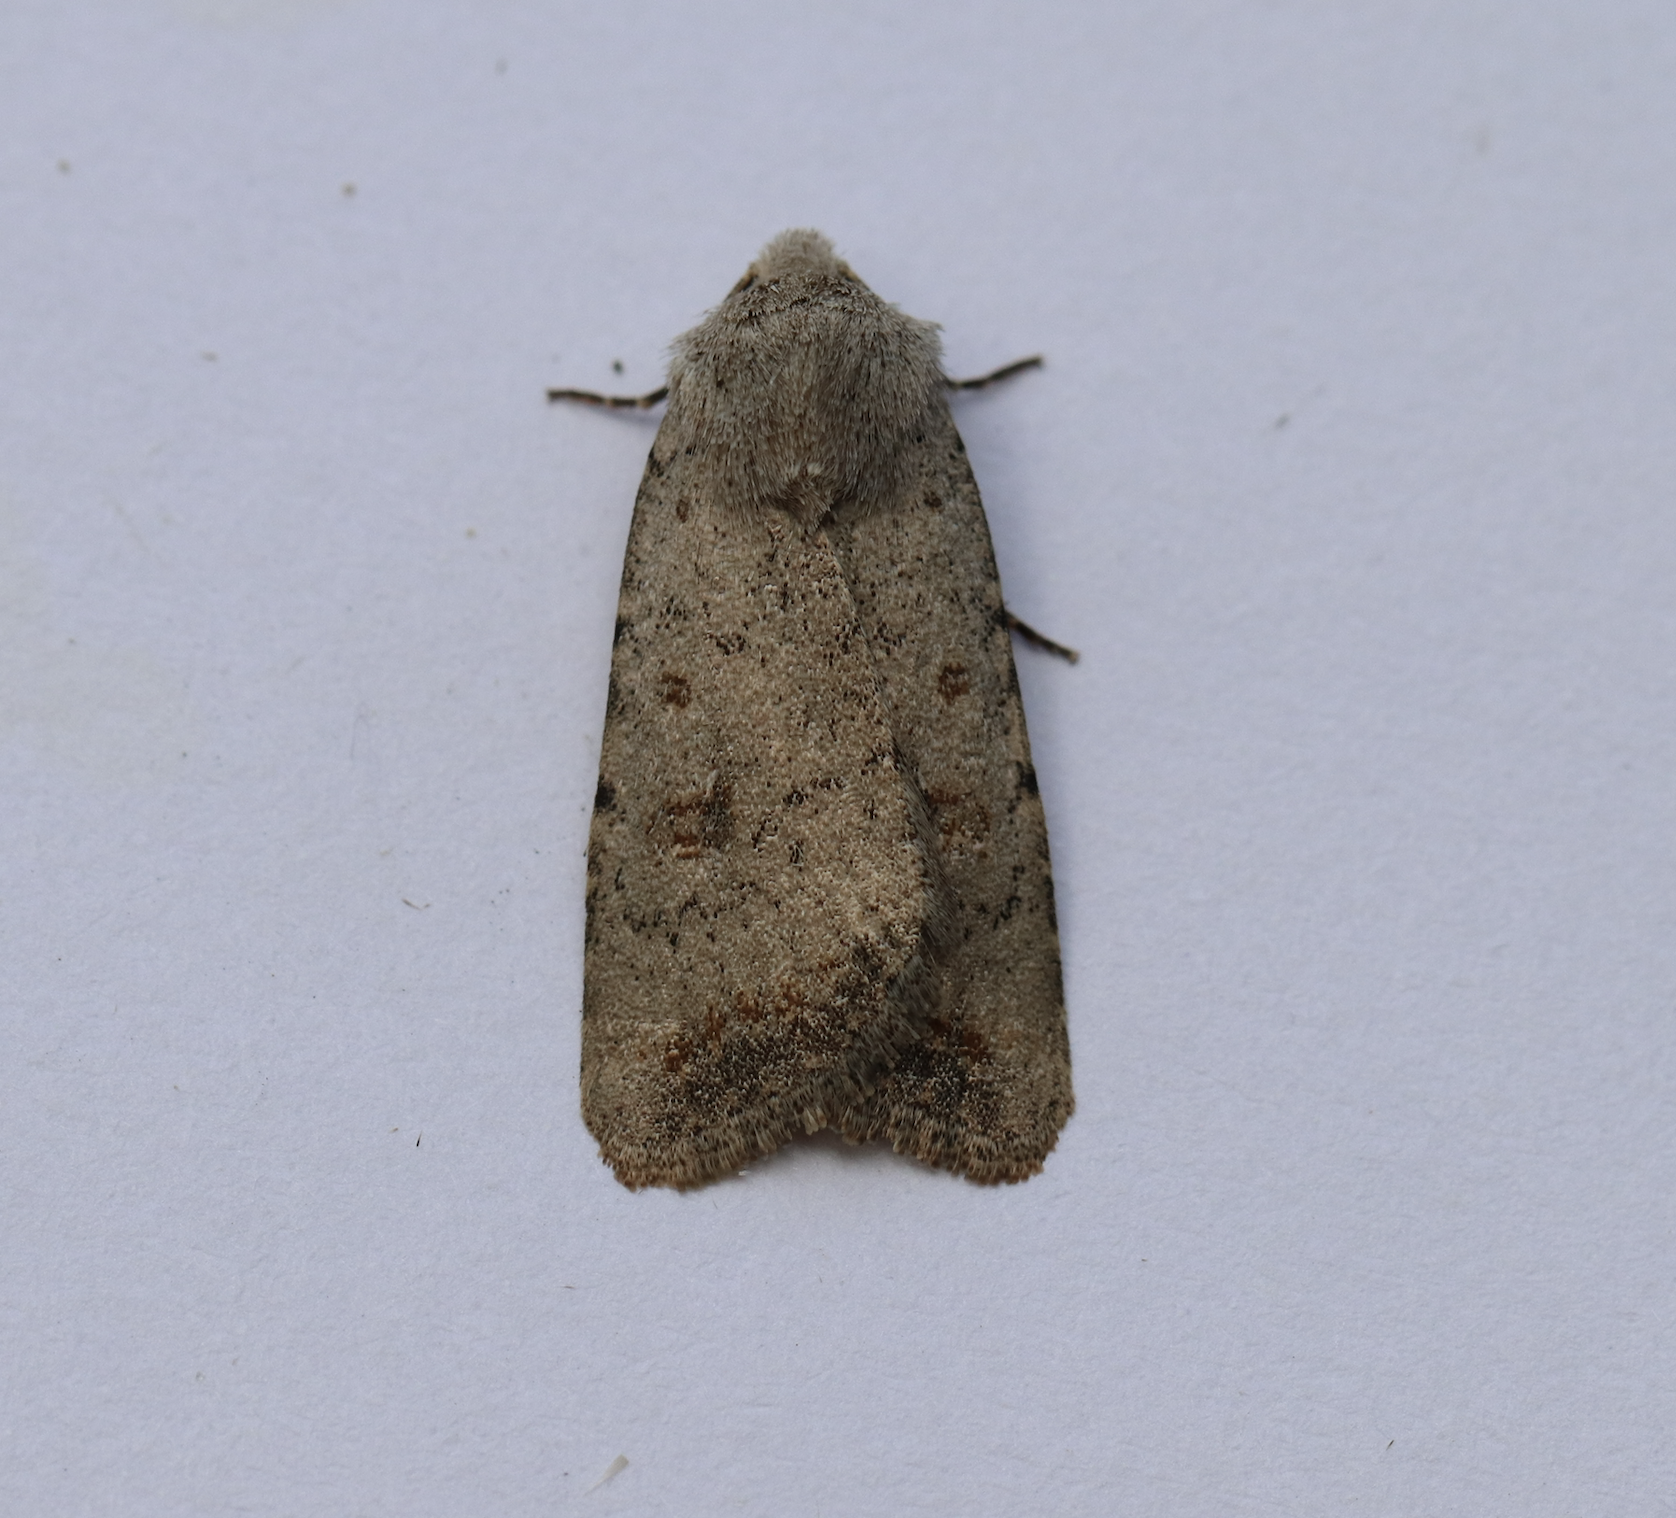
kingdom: Animalia
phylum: Arthropoda
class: Insecta
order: Lepidoptera
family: Noctuidae
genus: Caradrina
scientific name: Caradrina montana
